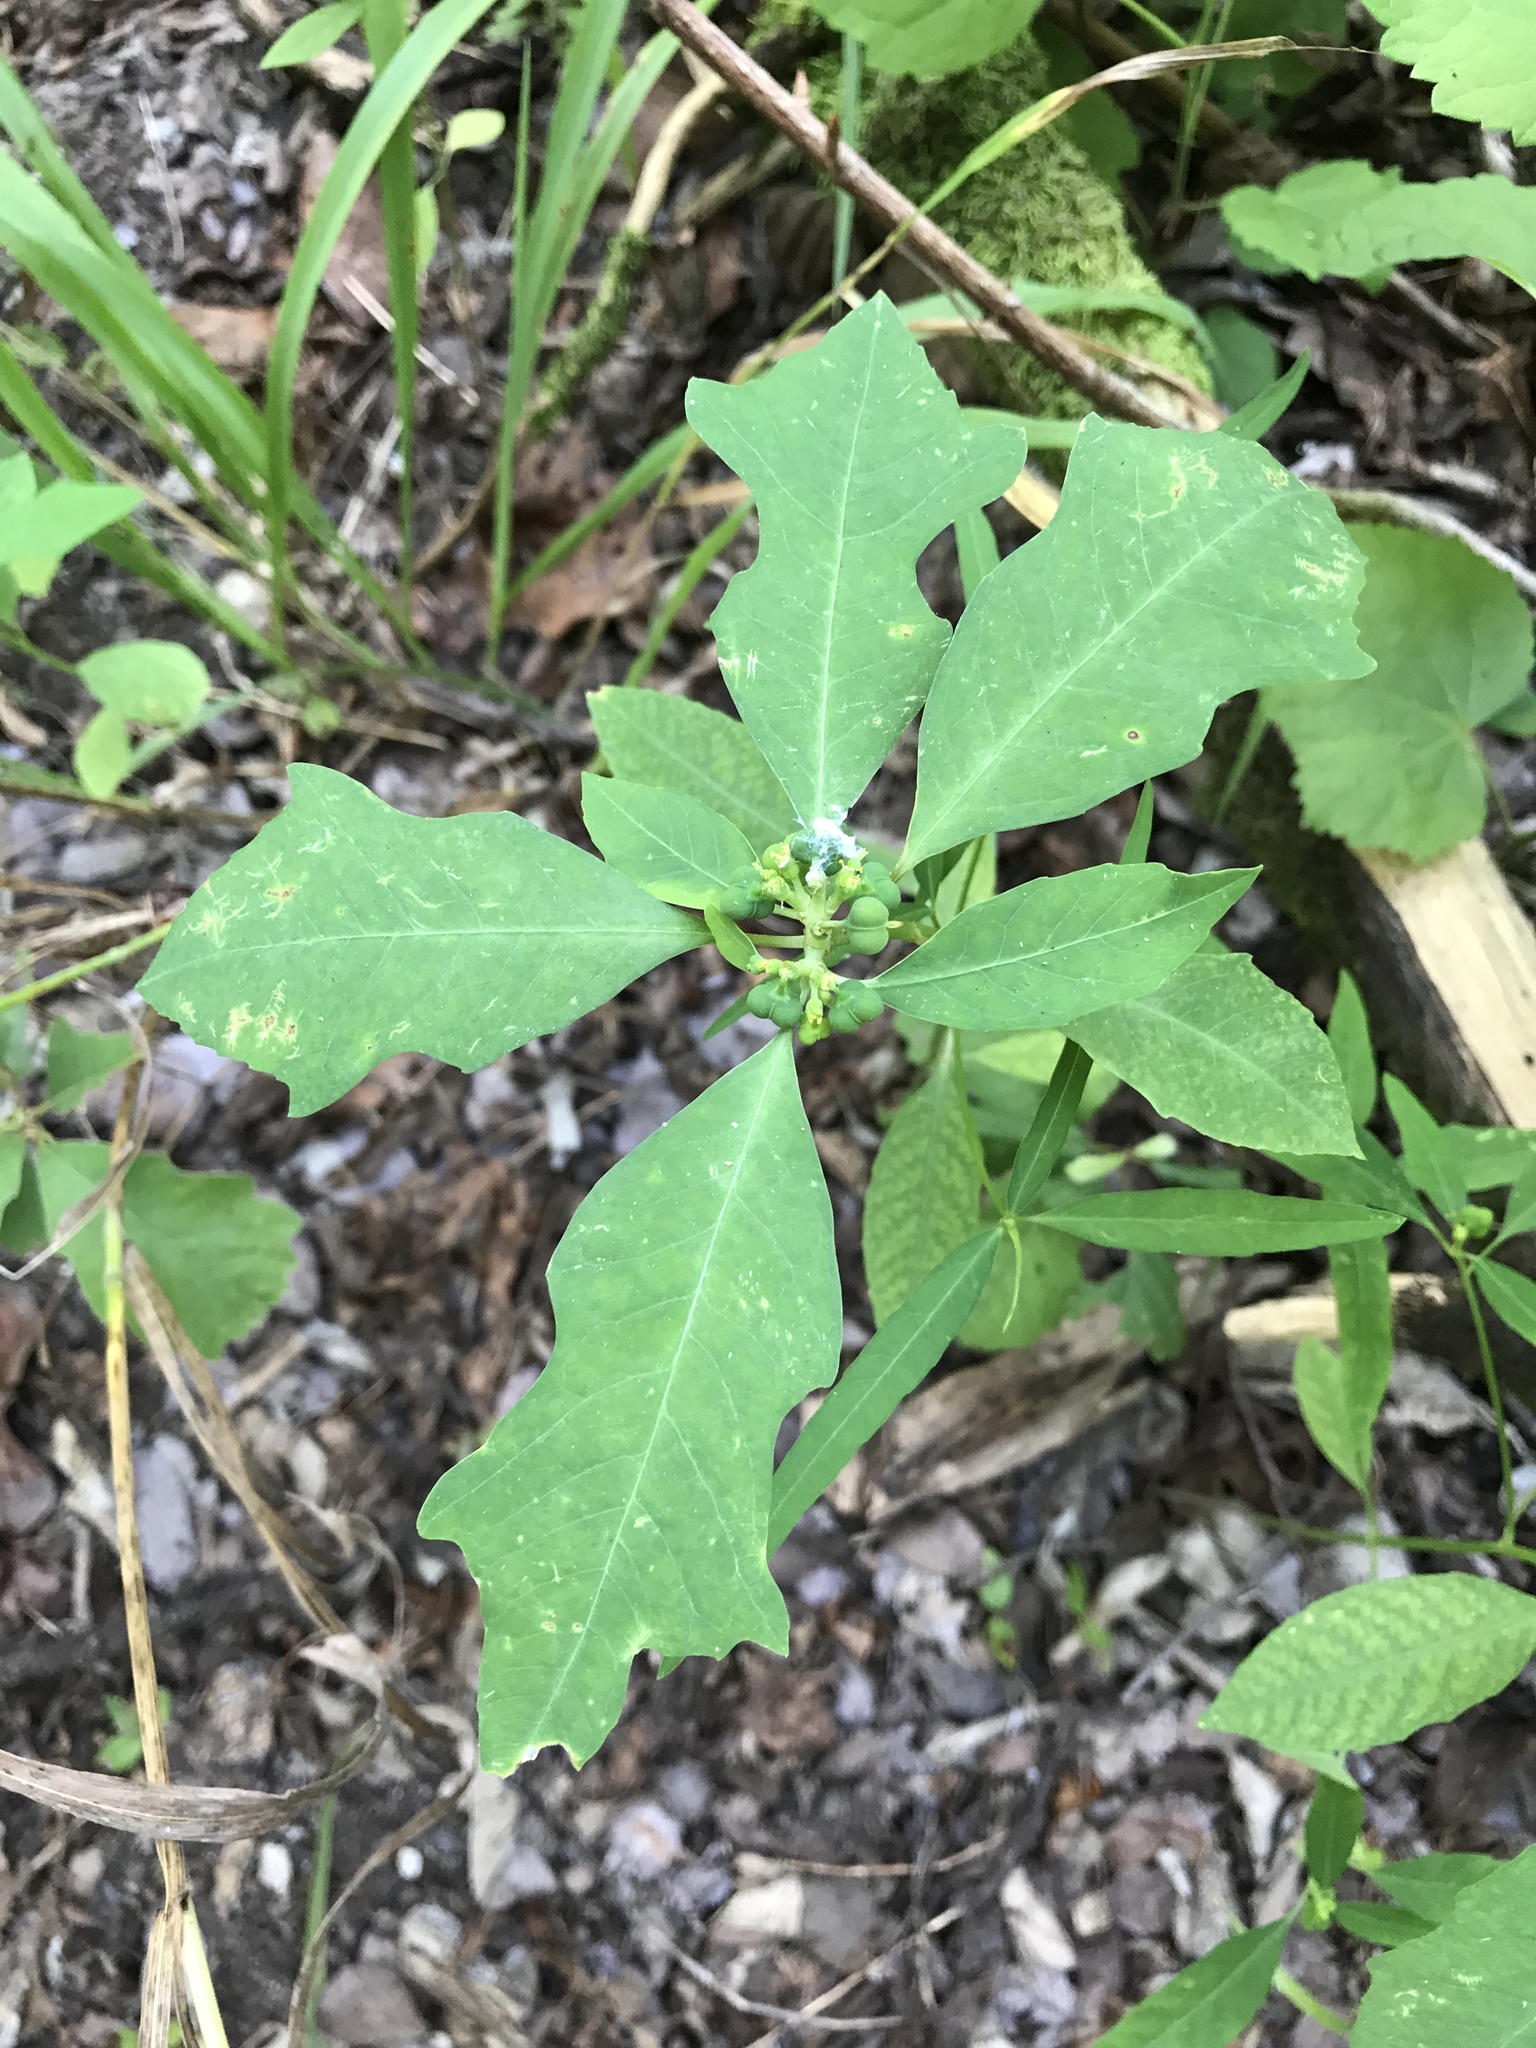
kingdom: Plantae
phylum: Tracheophyta
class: Magnoliopsida
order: Malpighiales
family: Euphorbiaceae
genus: Euphorbia
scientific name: Euphorbia heterophylla
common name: Mexican fireplant
